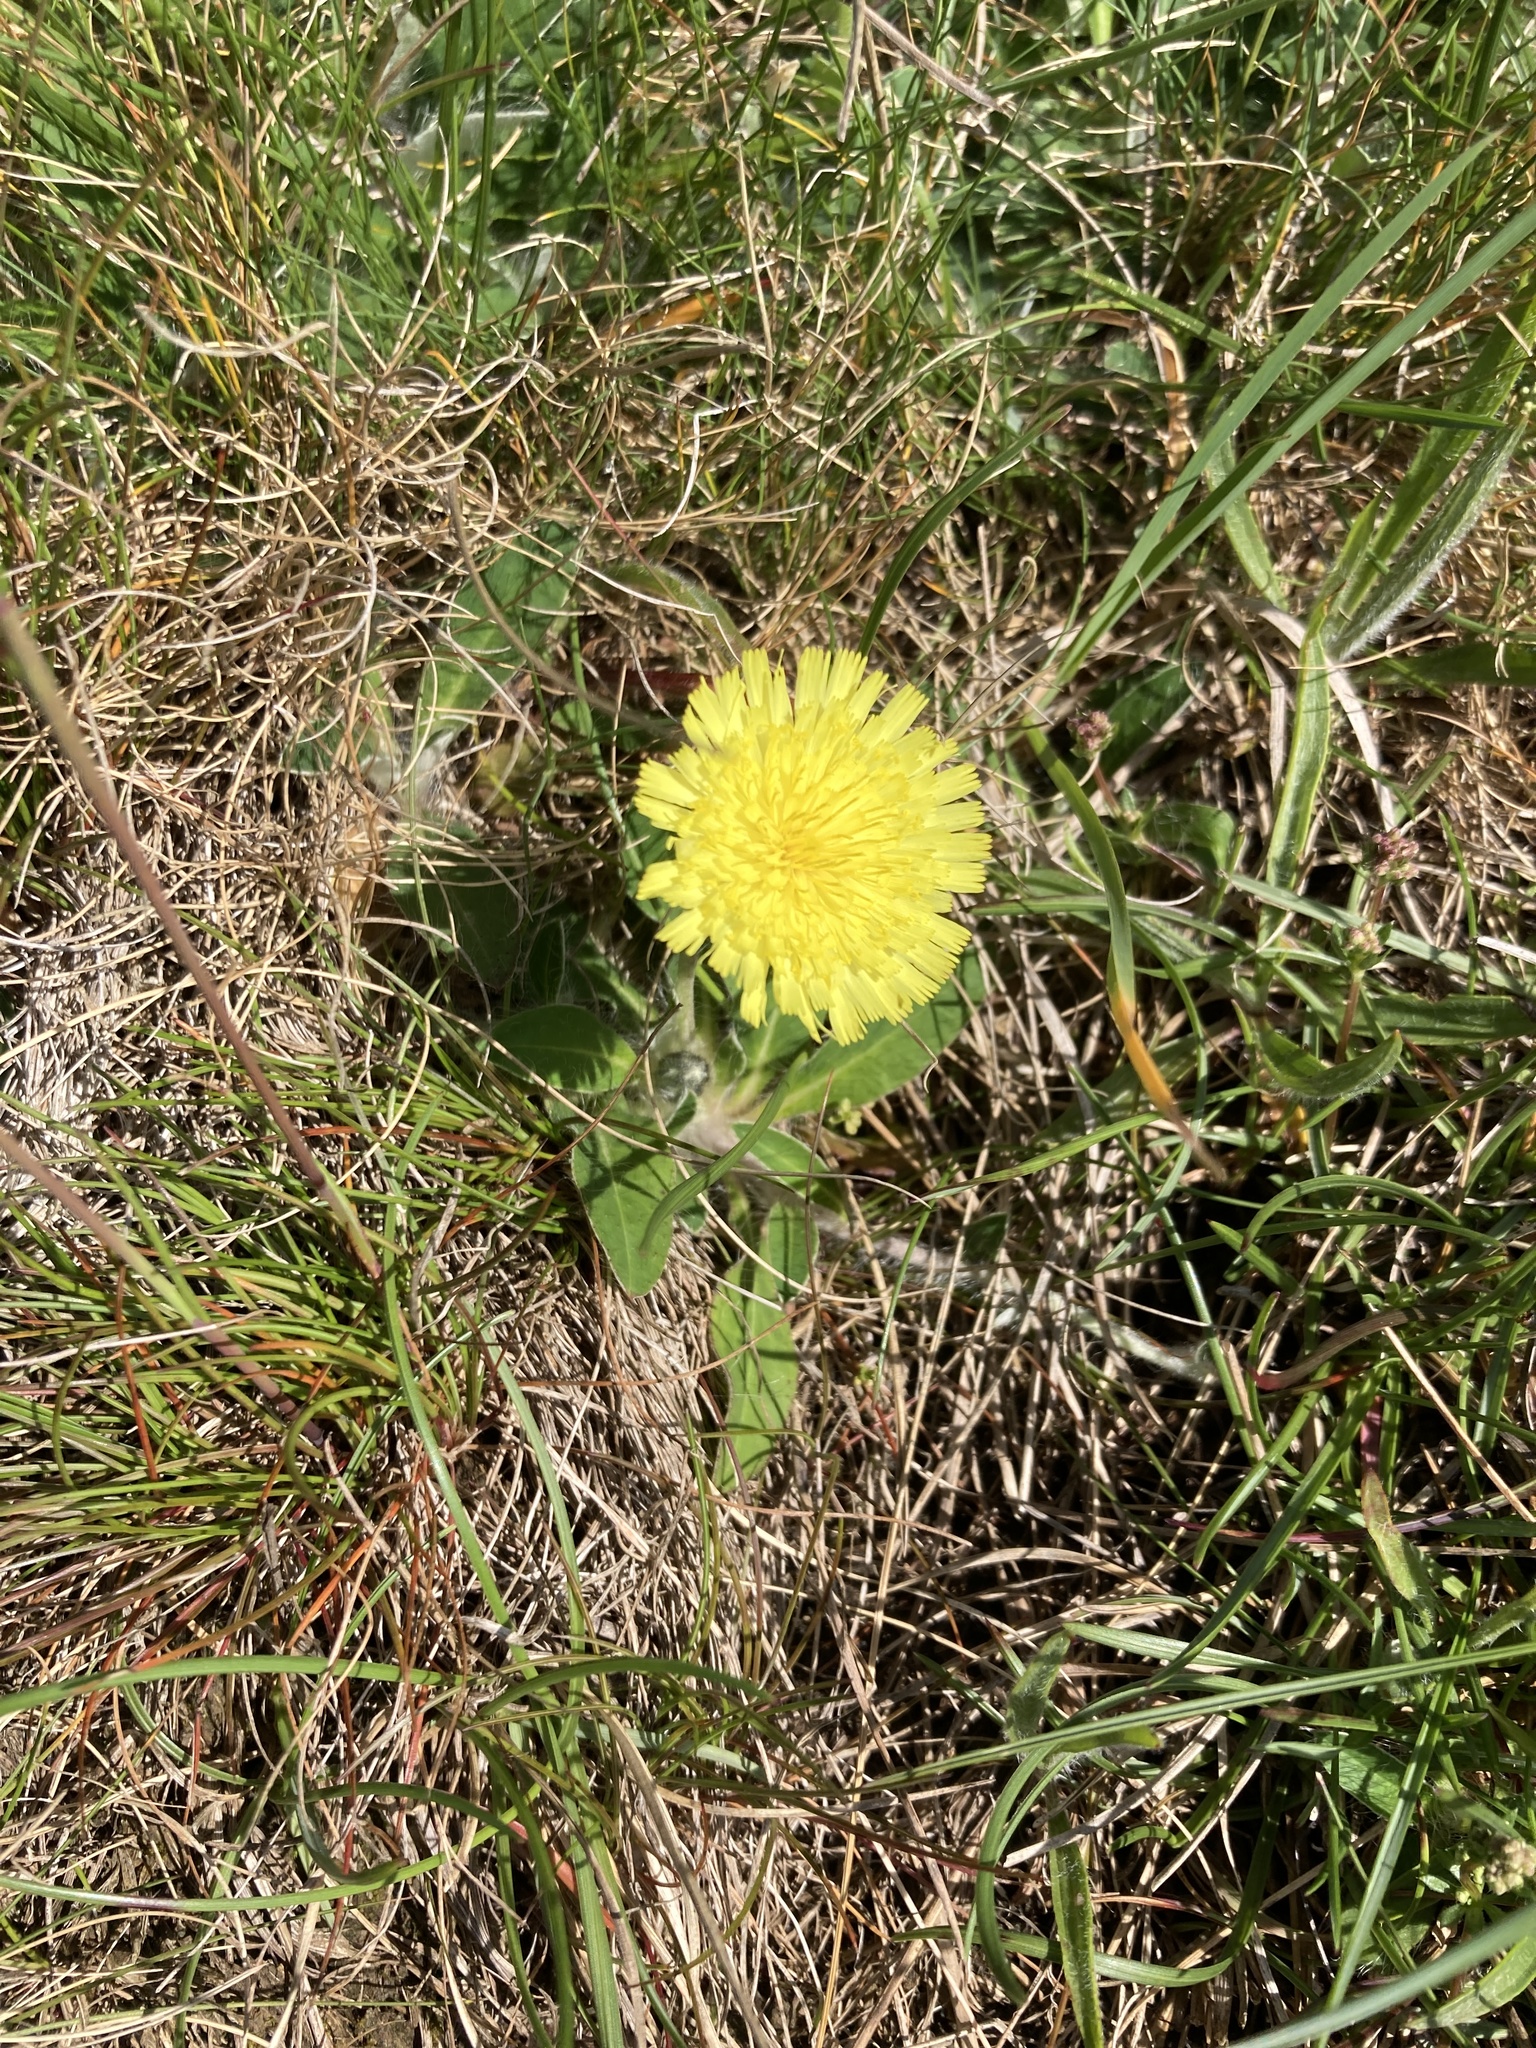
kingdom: Plantae
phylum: Tracheophyta
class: Magnoliopsida
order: Asterales
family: Asteraceae
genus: Pilosella
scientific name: Pilosella officinarum
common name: Mouse-ear hawkweed
